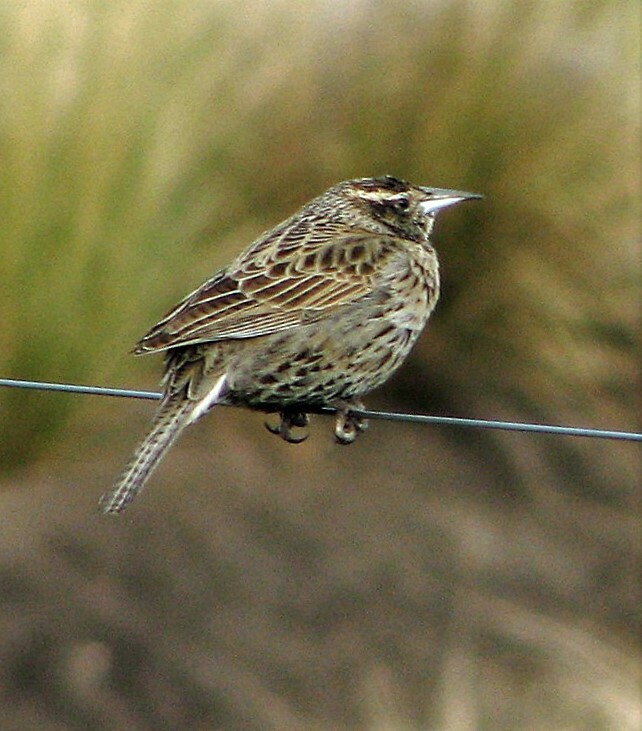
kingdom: Animalia
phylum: Chordata
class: Aves
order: Passeriformes
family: Icteridae
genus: Sturnella
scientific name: Sturnella loyca
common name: Long-tailed meadowlark
